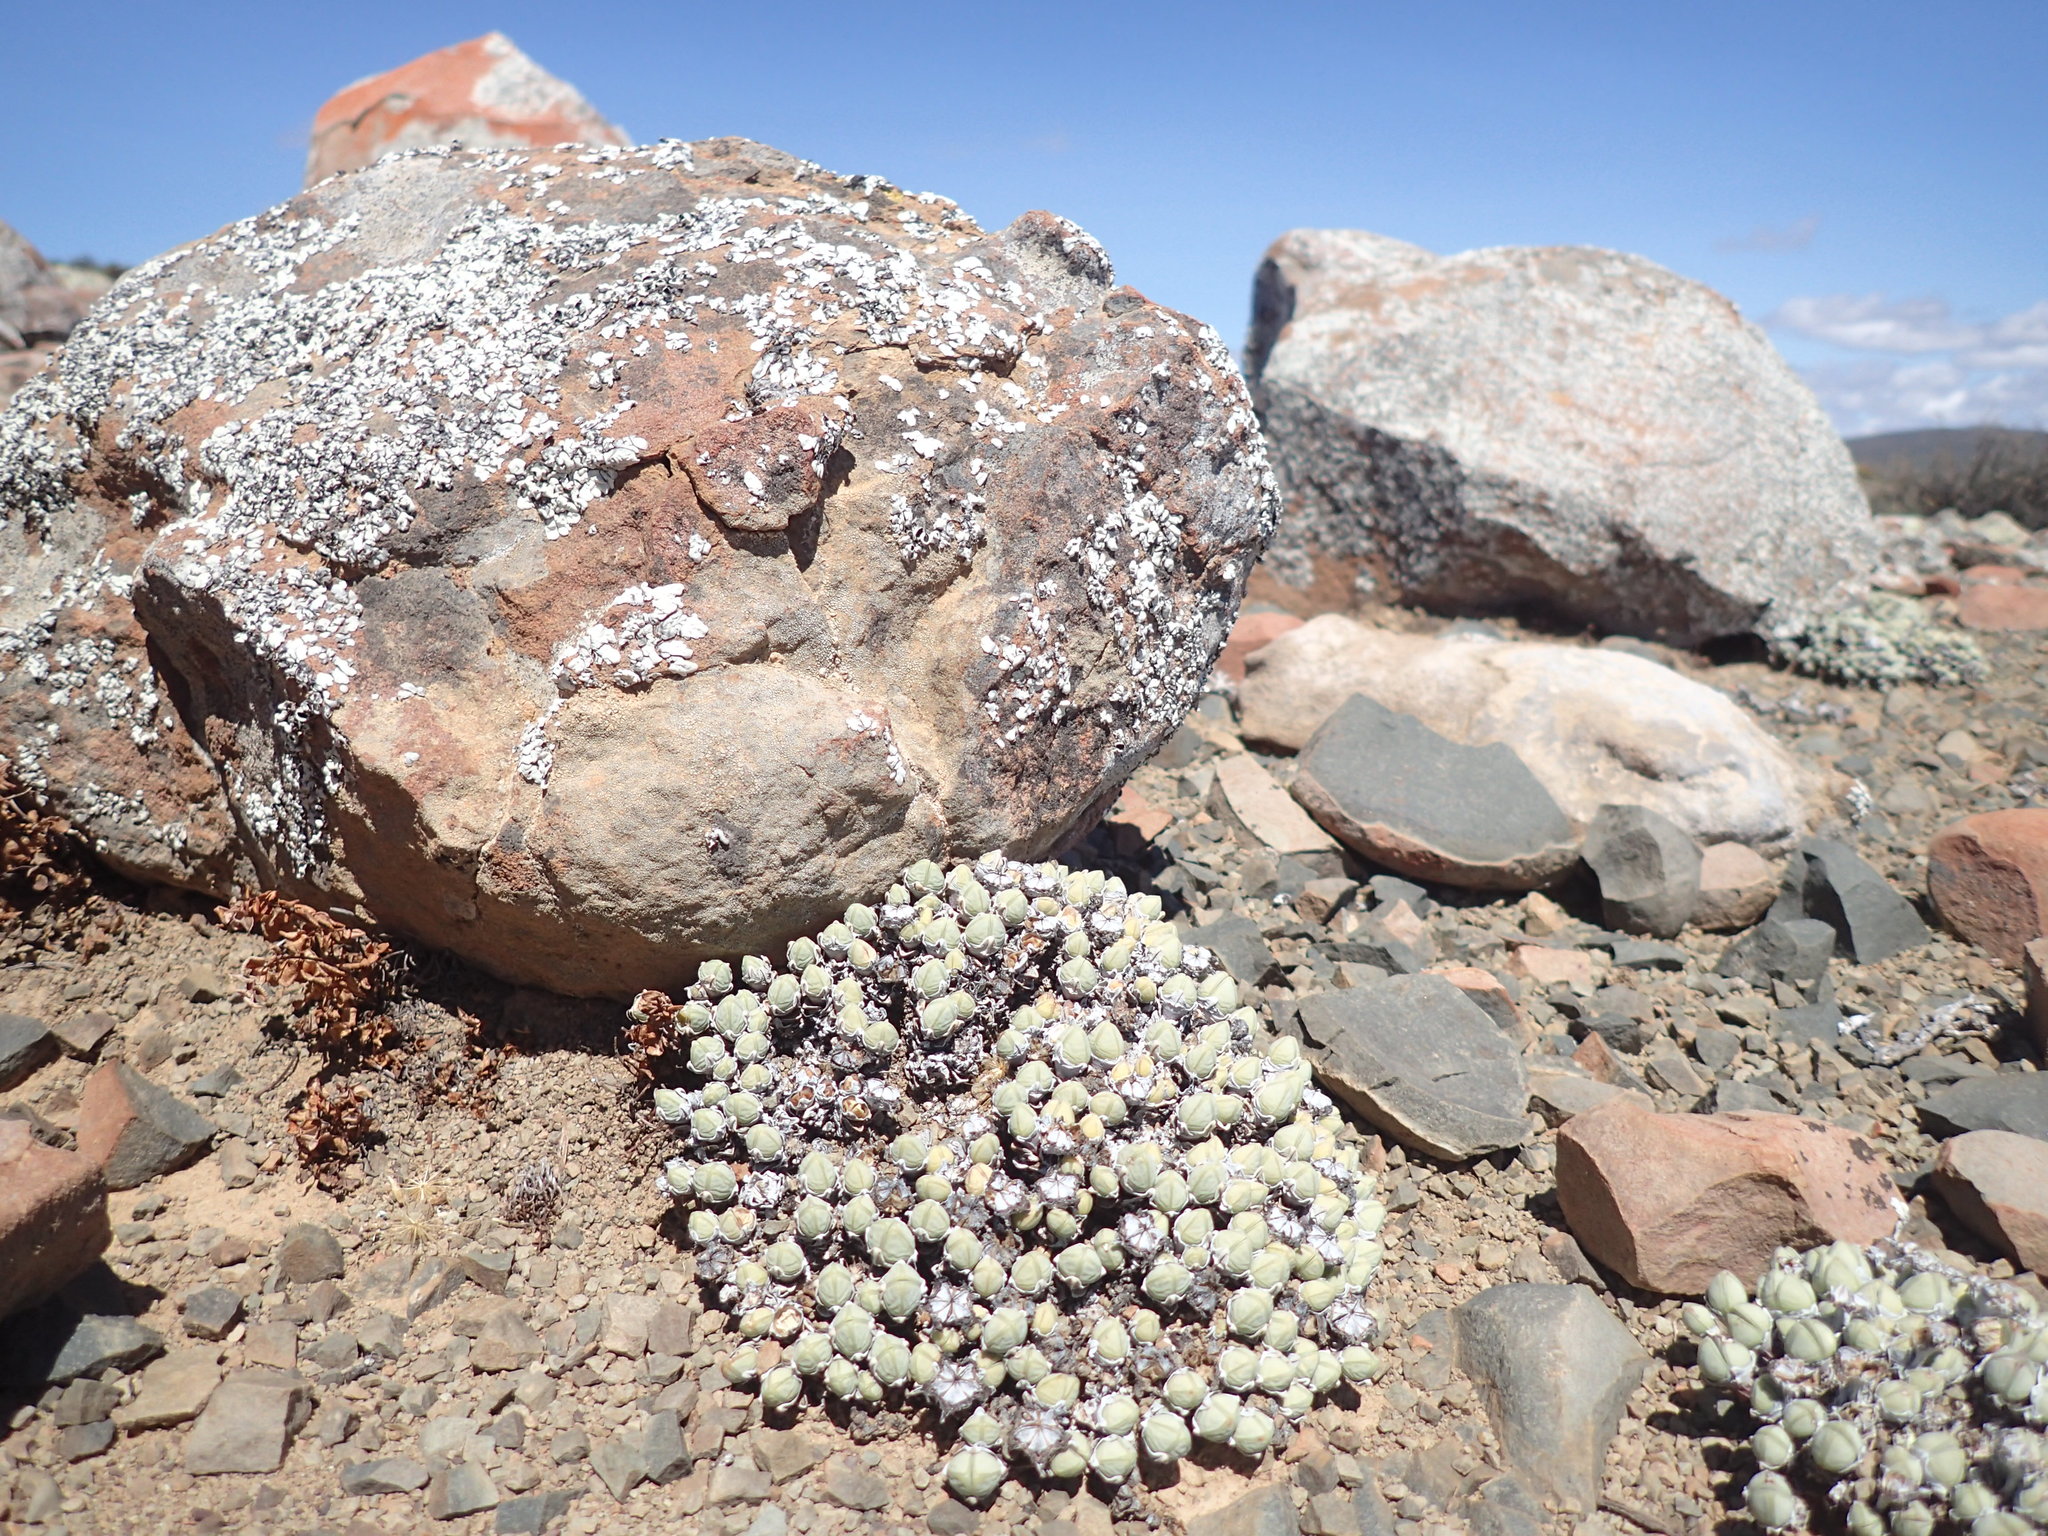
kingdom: Plantae
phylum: Tracheophyta
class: Magnoliopsida
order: Caryophyllales
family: Aizoaceae
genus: Antimima
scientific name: Antimima pumila
